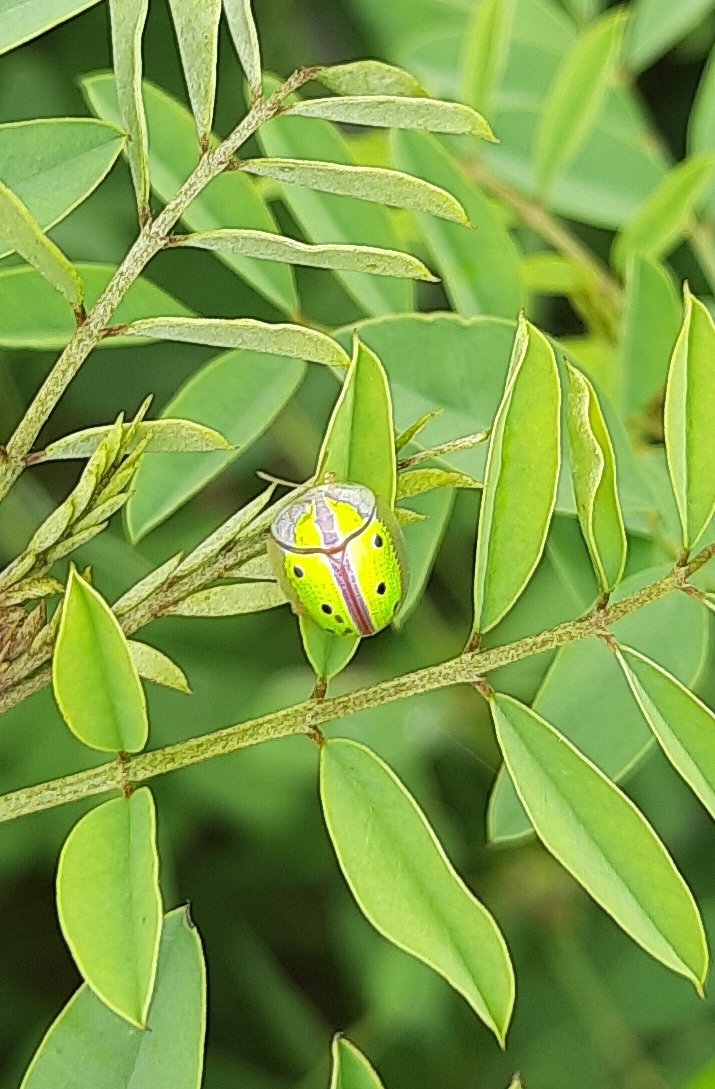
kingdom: Animalia
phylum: Arthropoda
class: Insecta
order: Coleoptera
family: Chrysomelidae
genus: Chiridopsis
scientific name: Chiridopsis bipunctata
